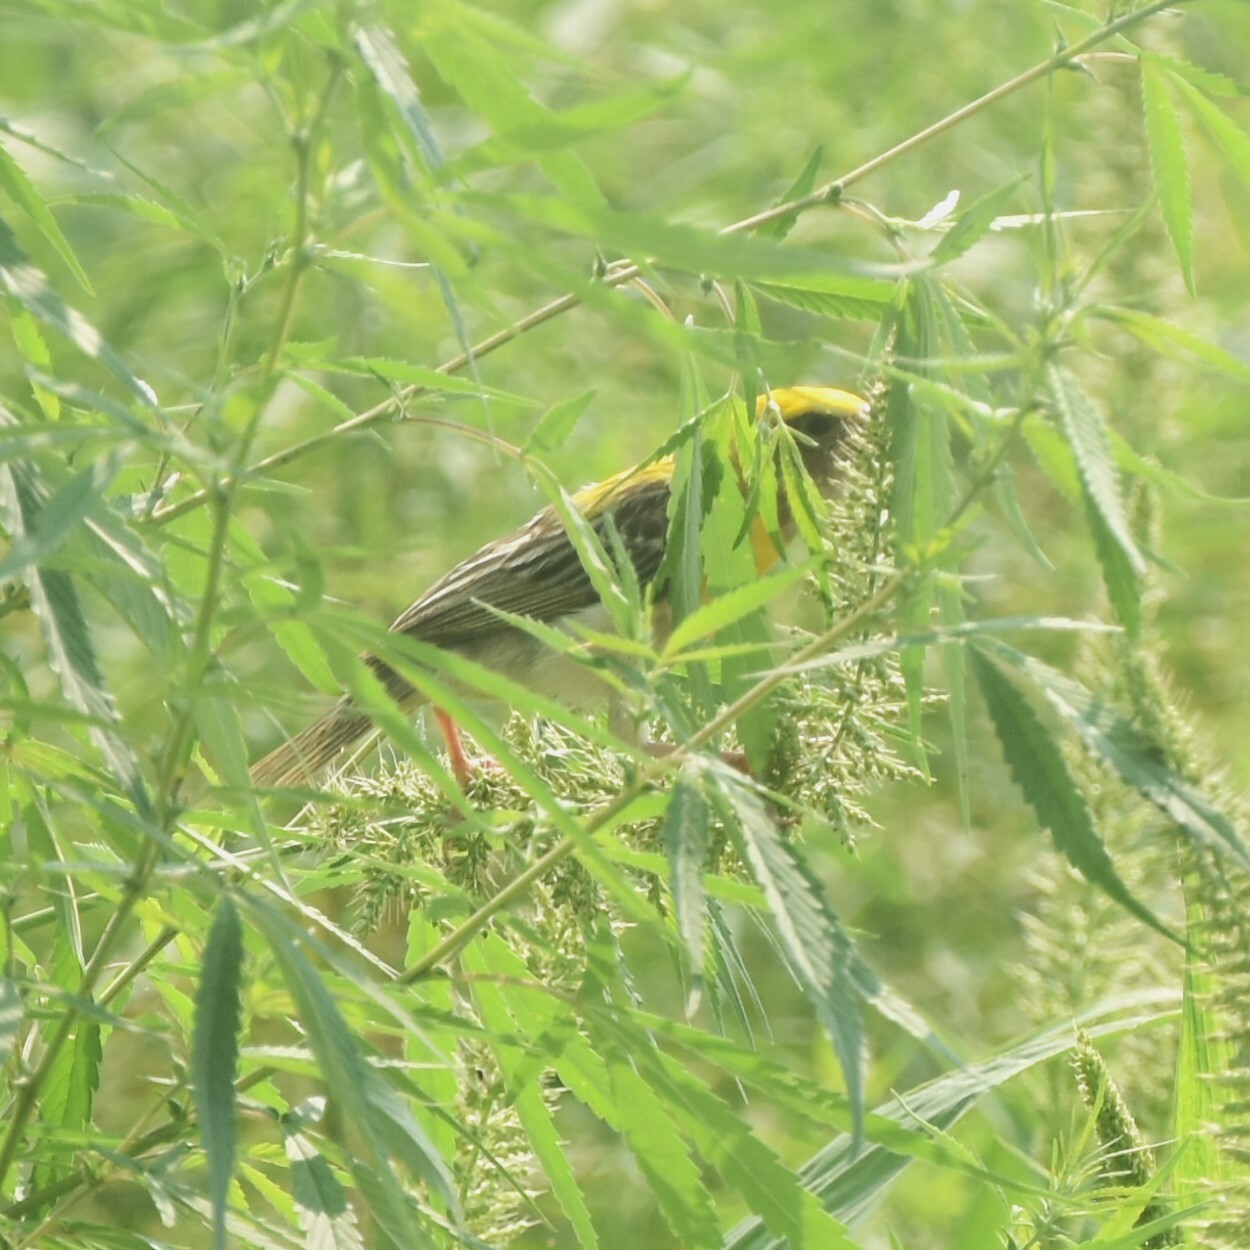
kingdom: Animalia
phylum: Chordata
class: Aves
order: Passeriformes
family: Ploceidae
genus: Ploceus
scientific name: Ploceus philippinus
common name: Baya weaver
